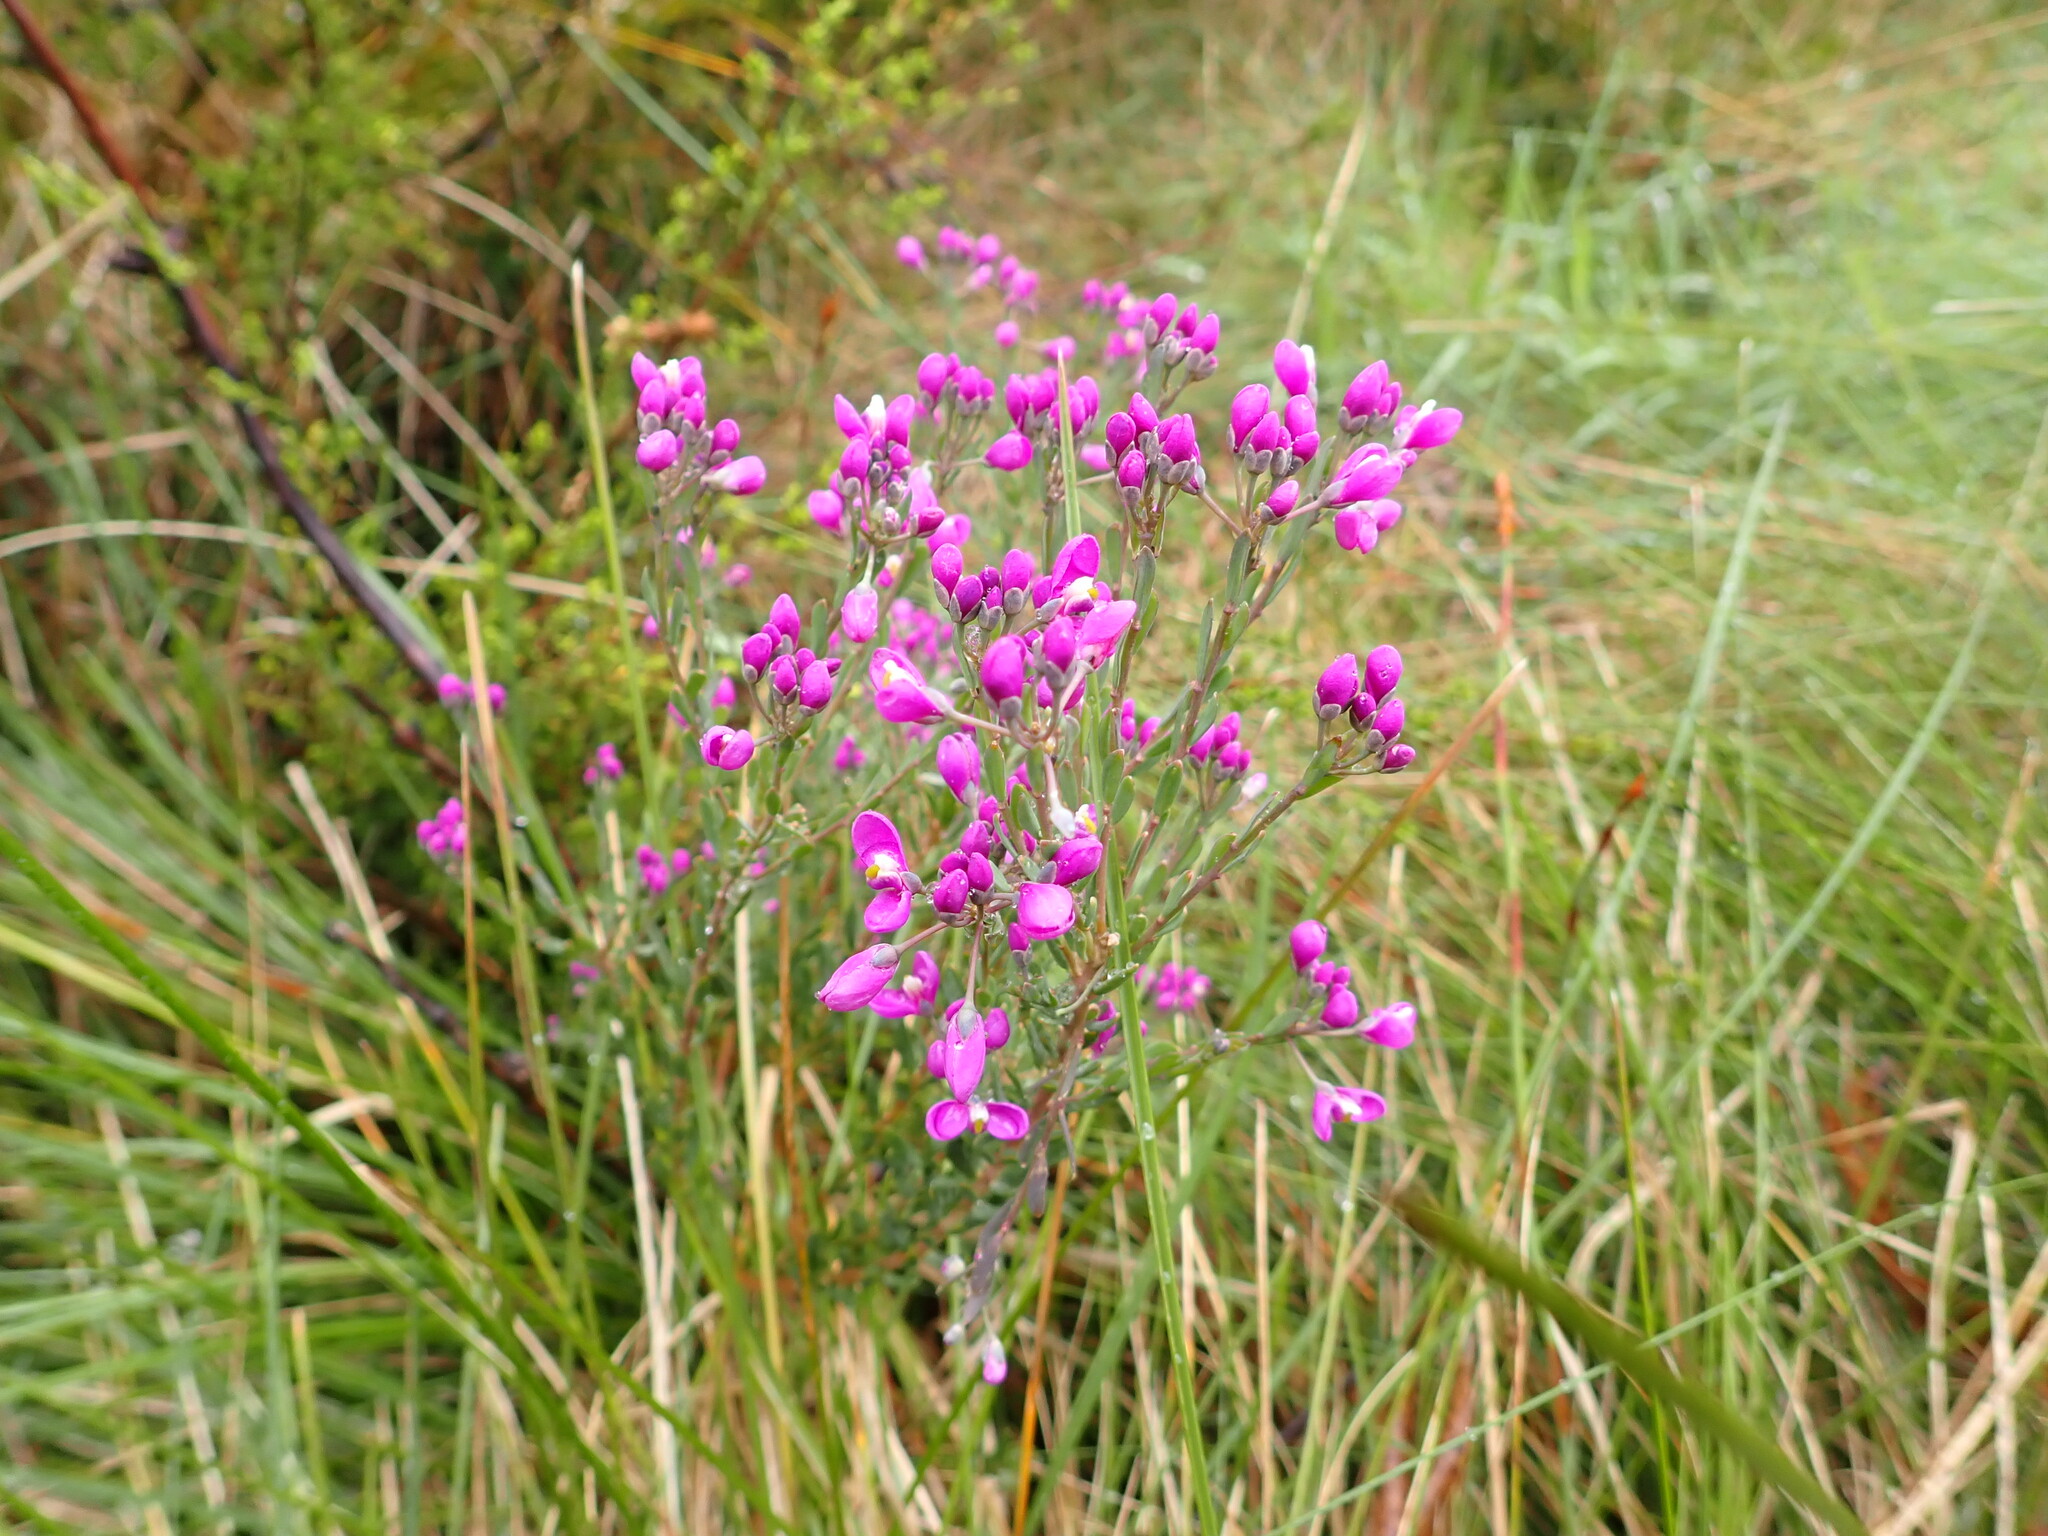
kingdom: Plantae
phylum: Tracheophyta
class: Magnoliopsida
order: Fabales
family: Polygalaceae
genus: Comesperma
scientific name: Comesperma retusum
